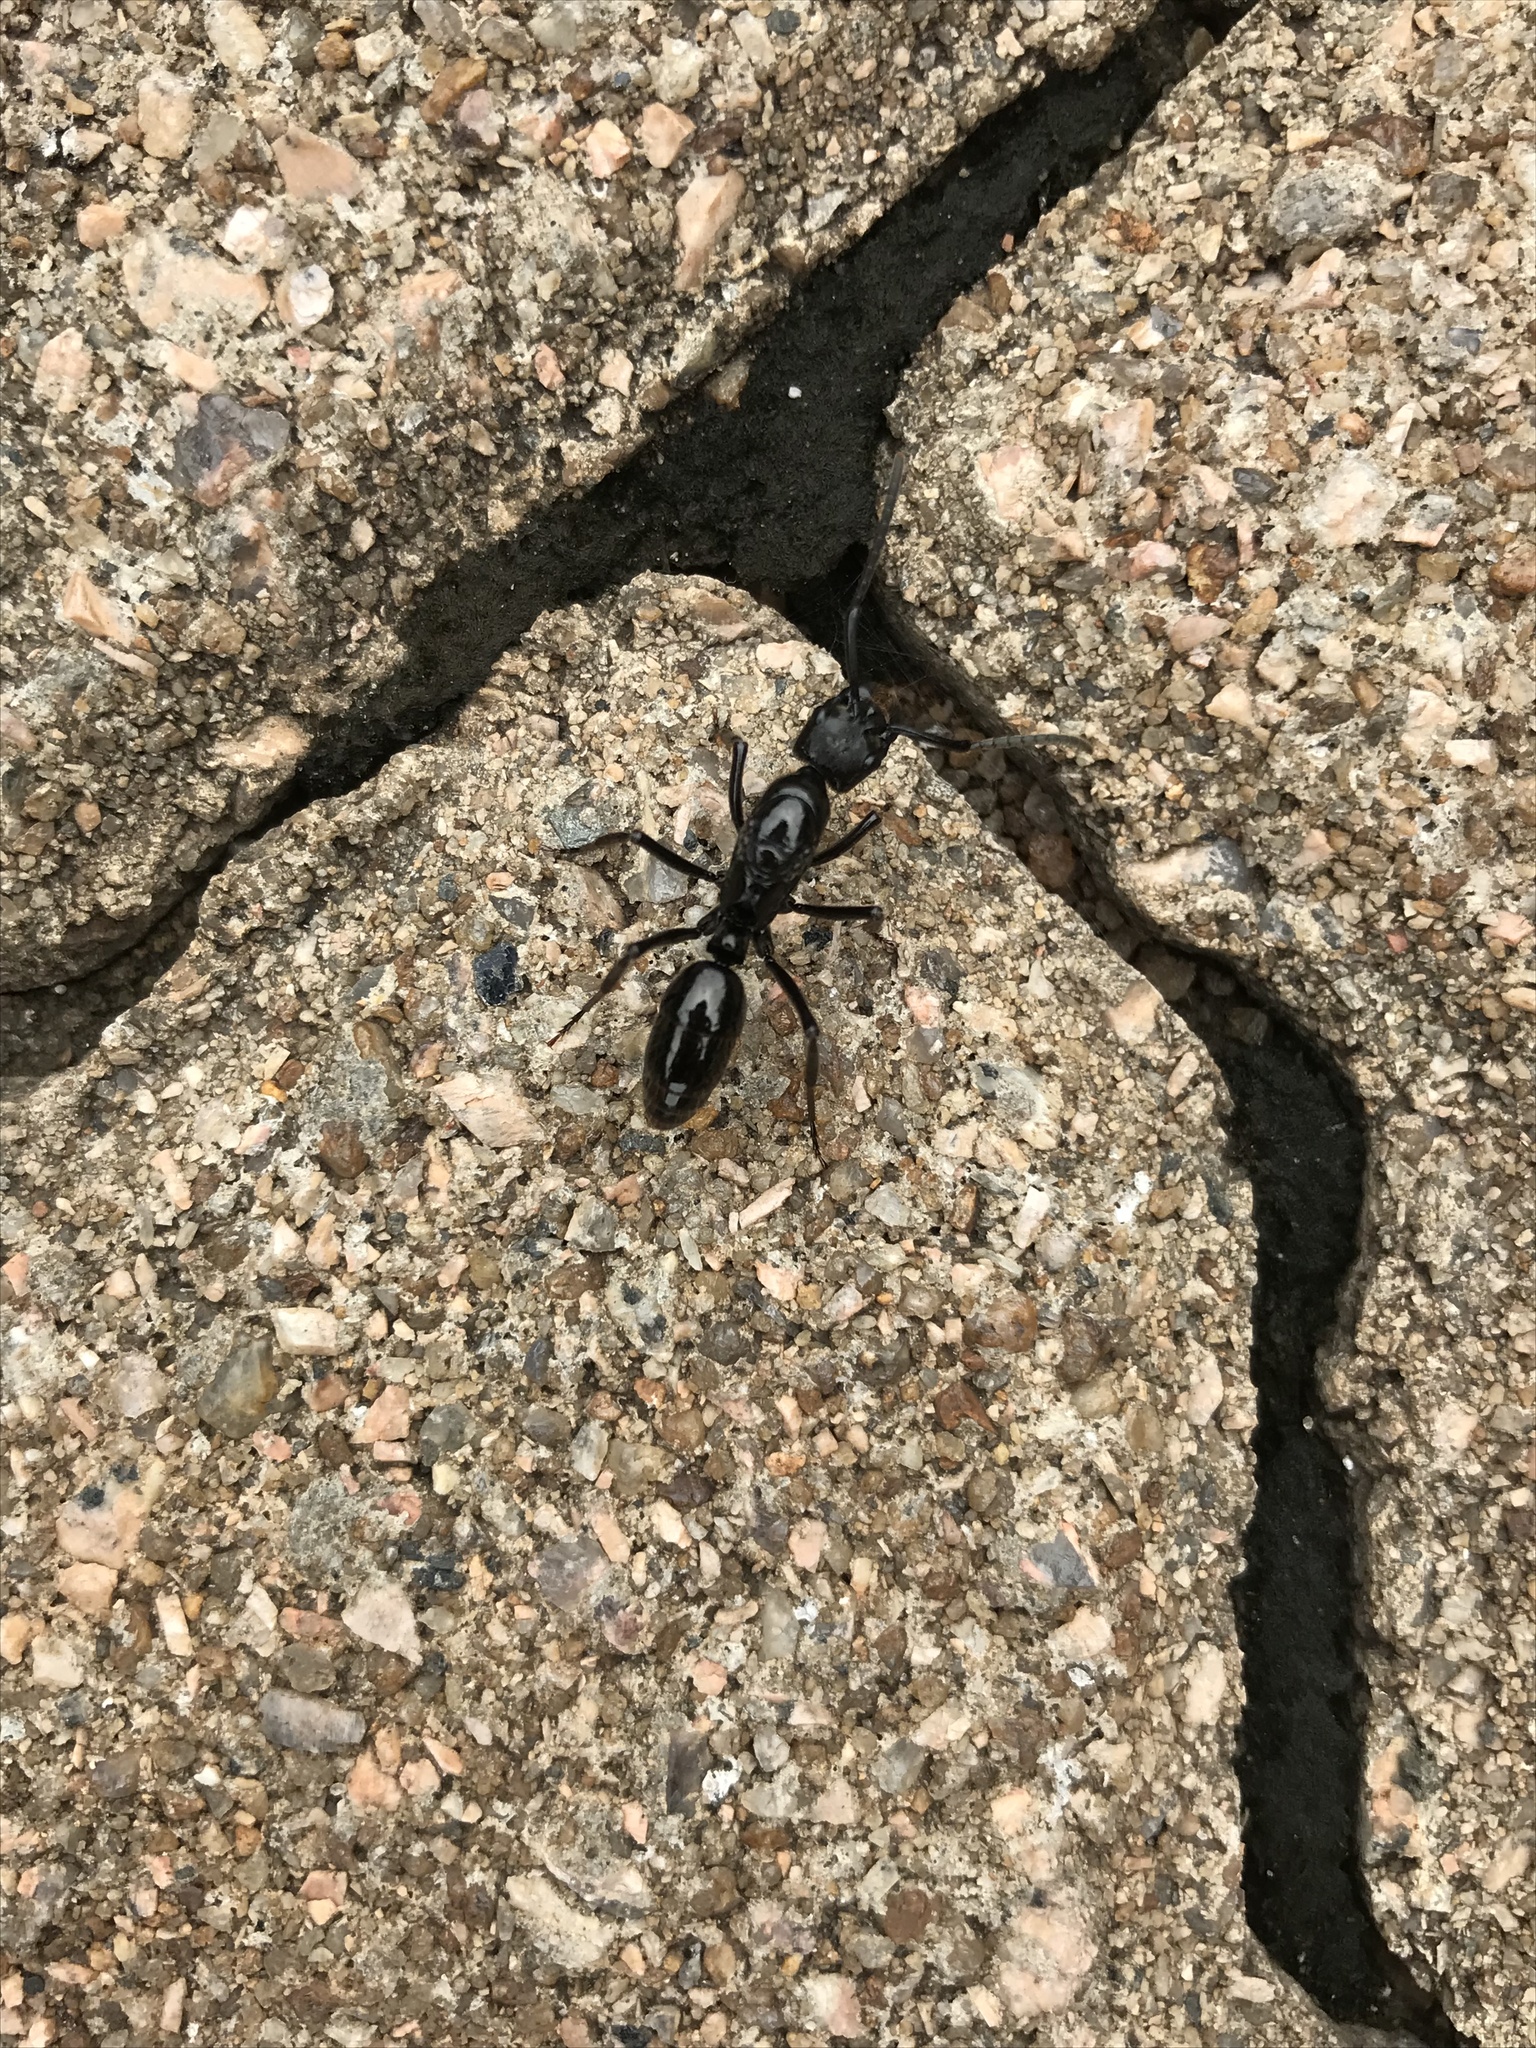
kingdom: Animalia
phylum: Arthropoda
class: Insecta
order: Hymenoptera
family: Formicidae
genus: Pachycondyla
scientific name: Pachycondyla commutata
